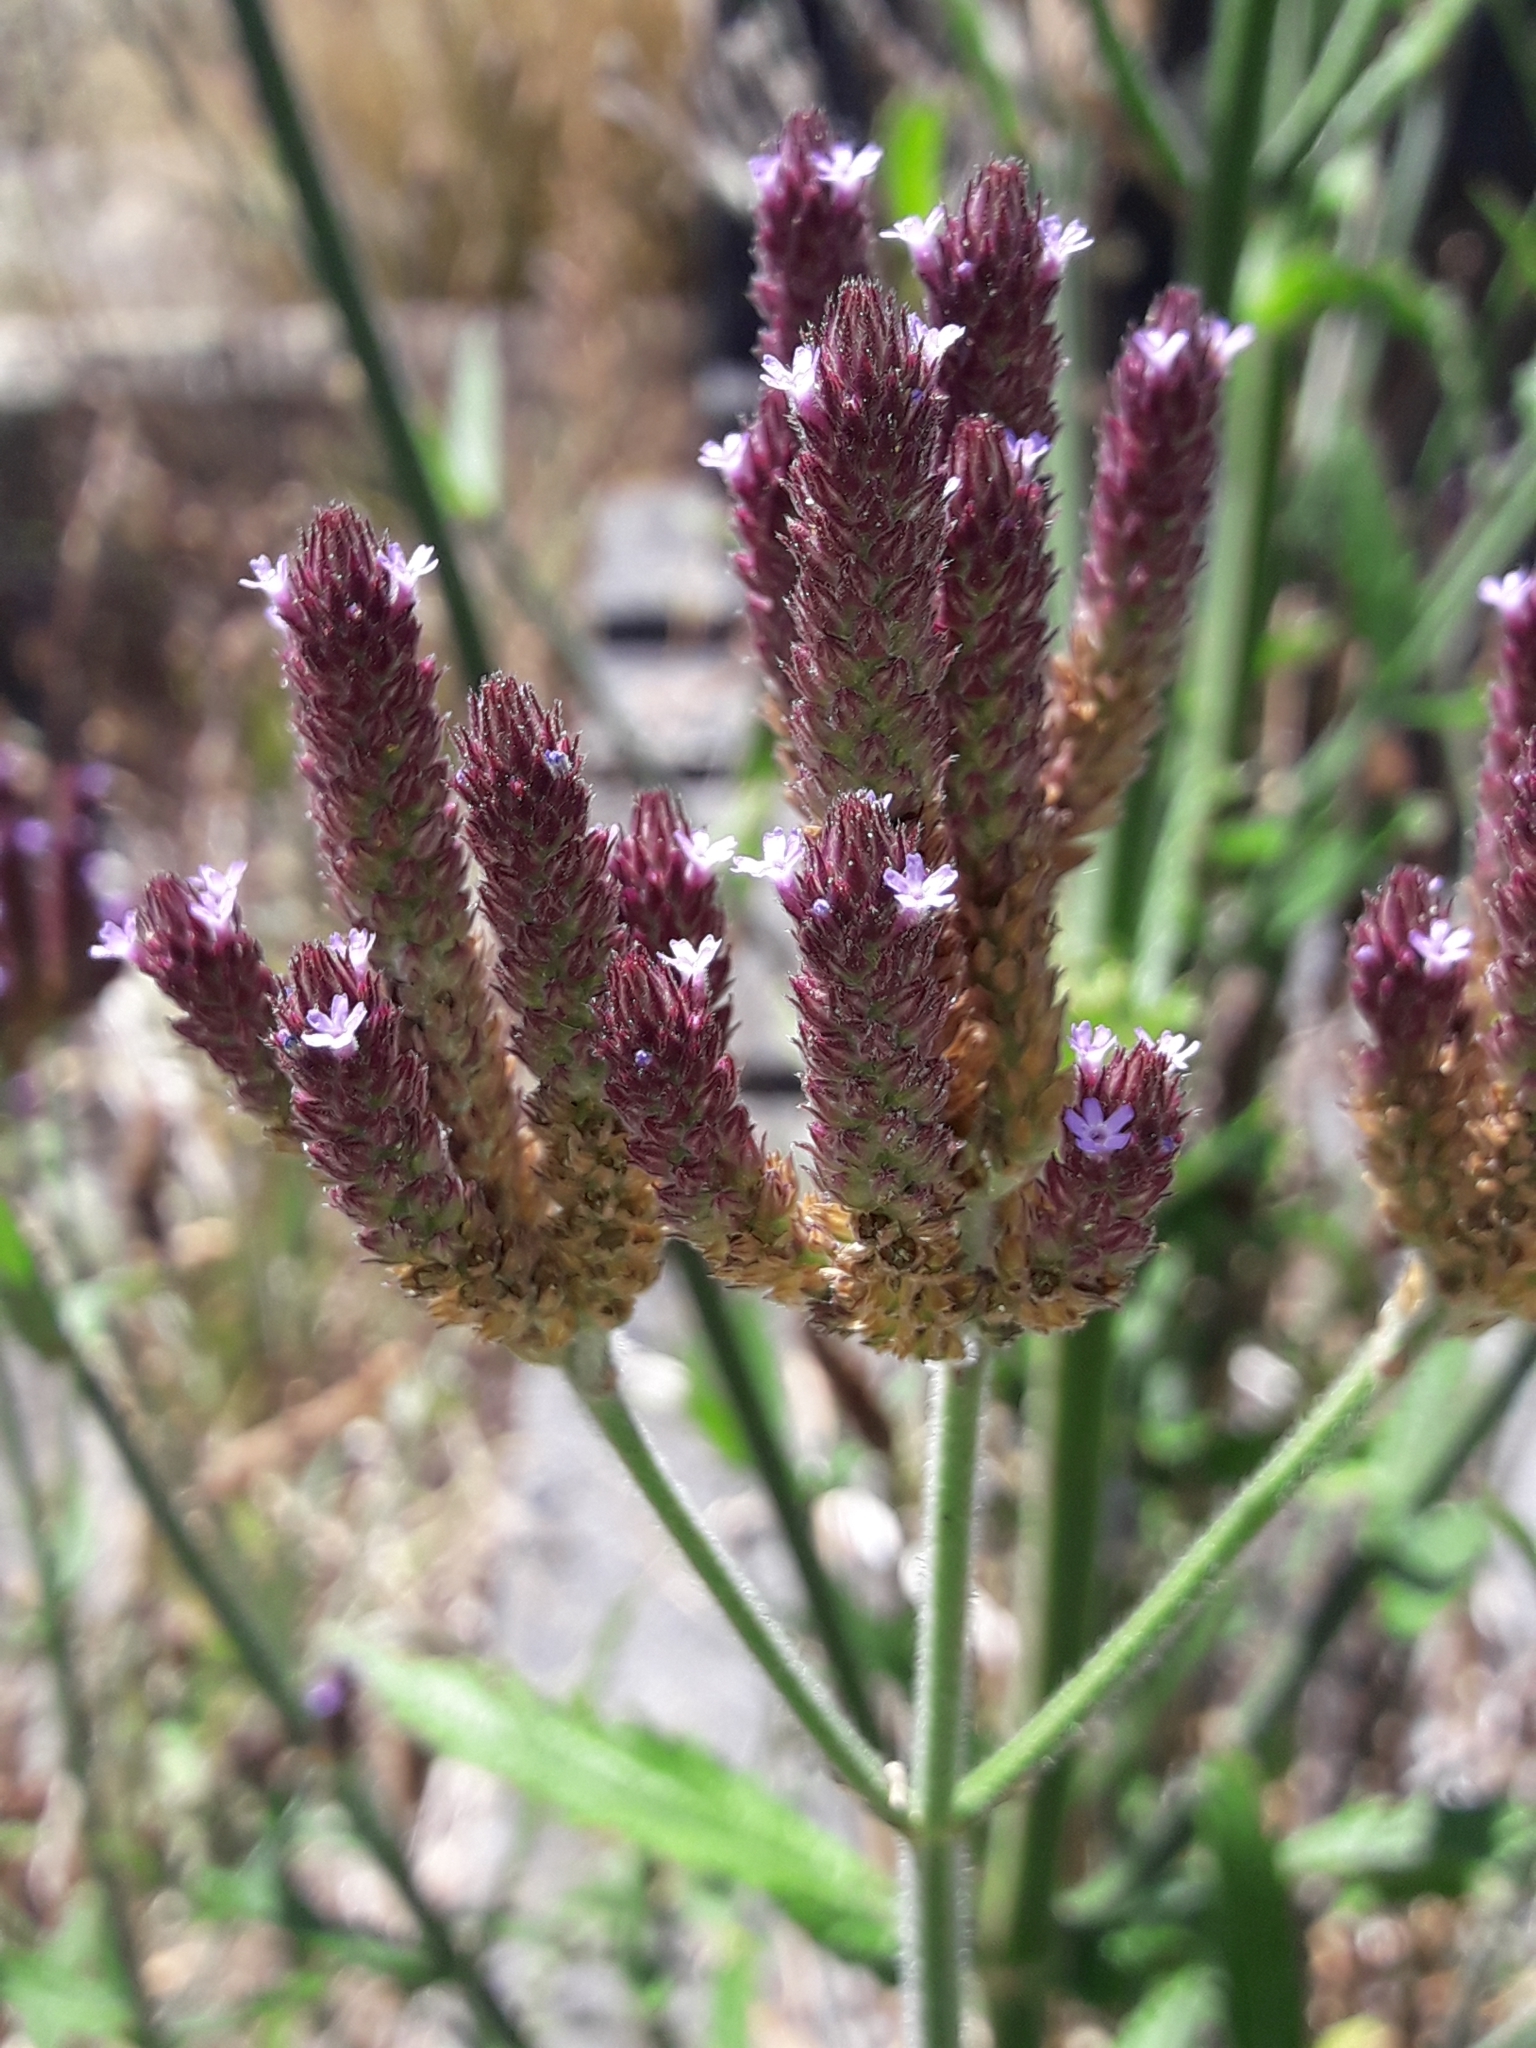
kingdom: Plantae
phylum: Tracheophyta
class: Magnoliopsida
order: Lamiales
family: Verbenaceae
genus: Verbena
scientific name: Verbena incompta
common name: Purpletop vervain
